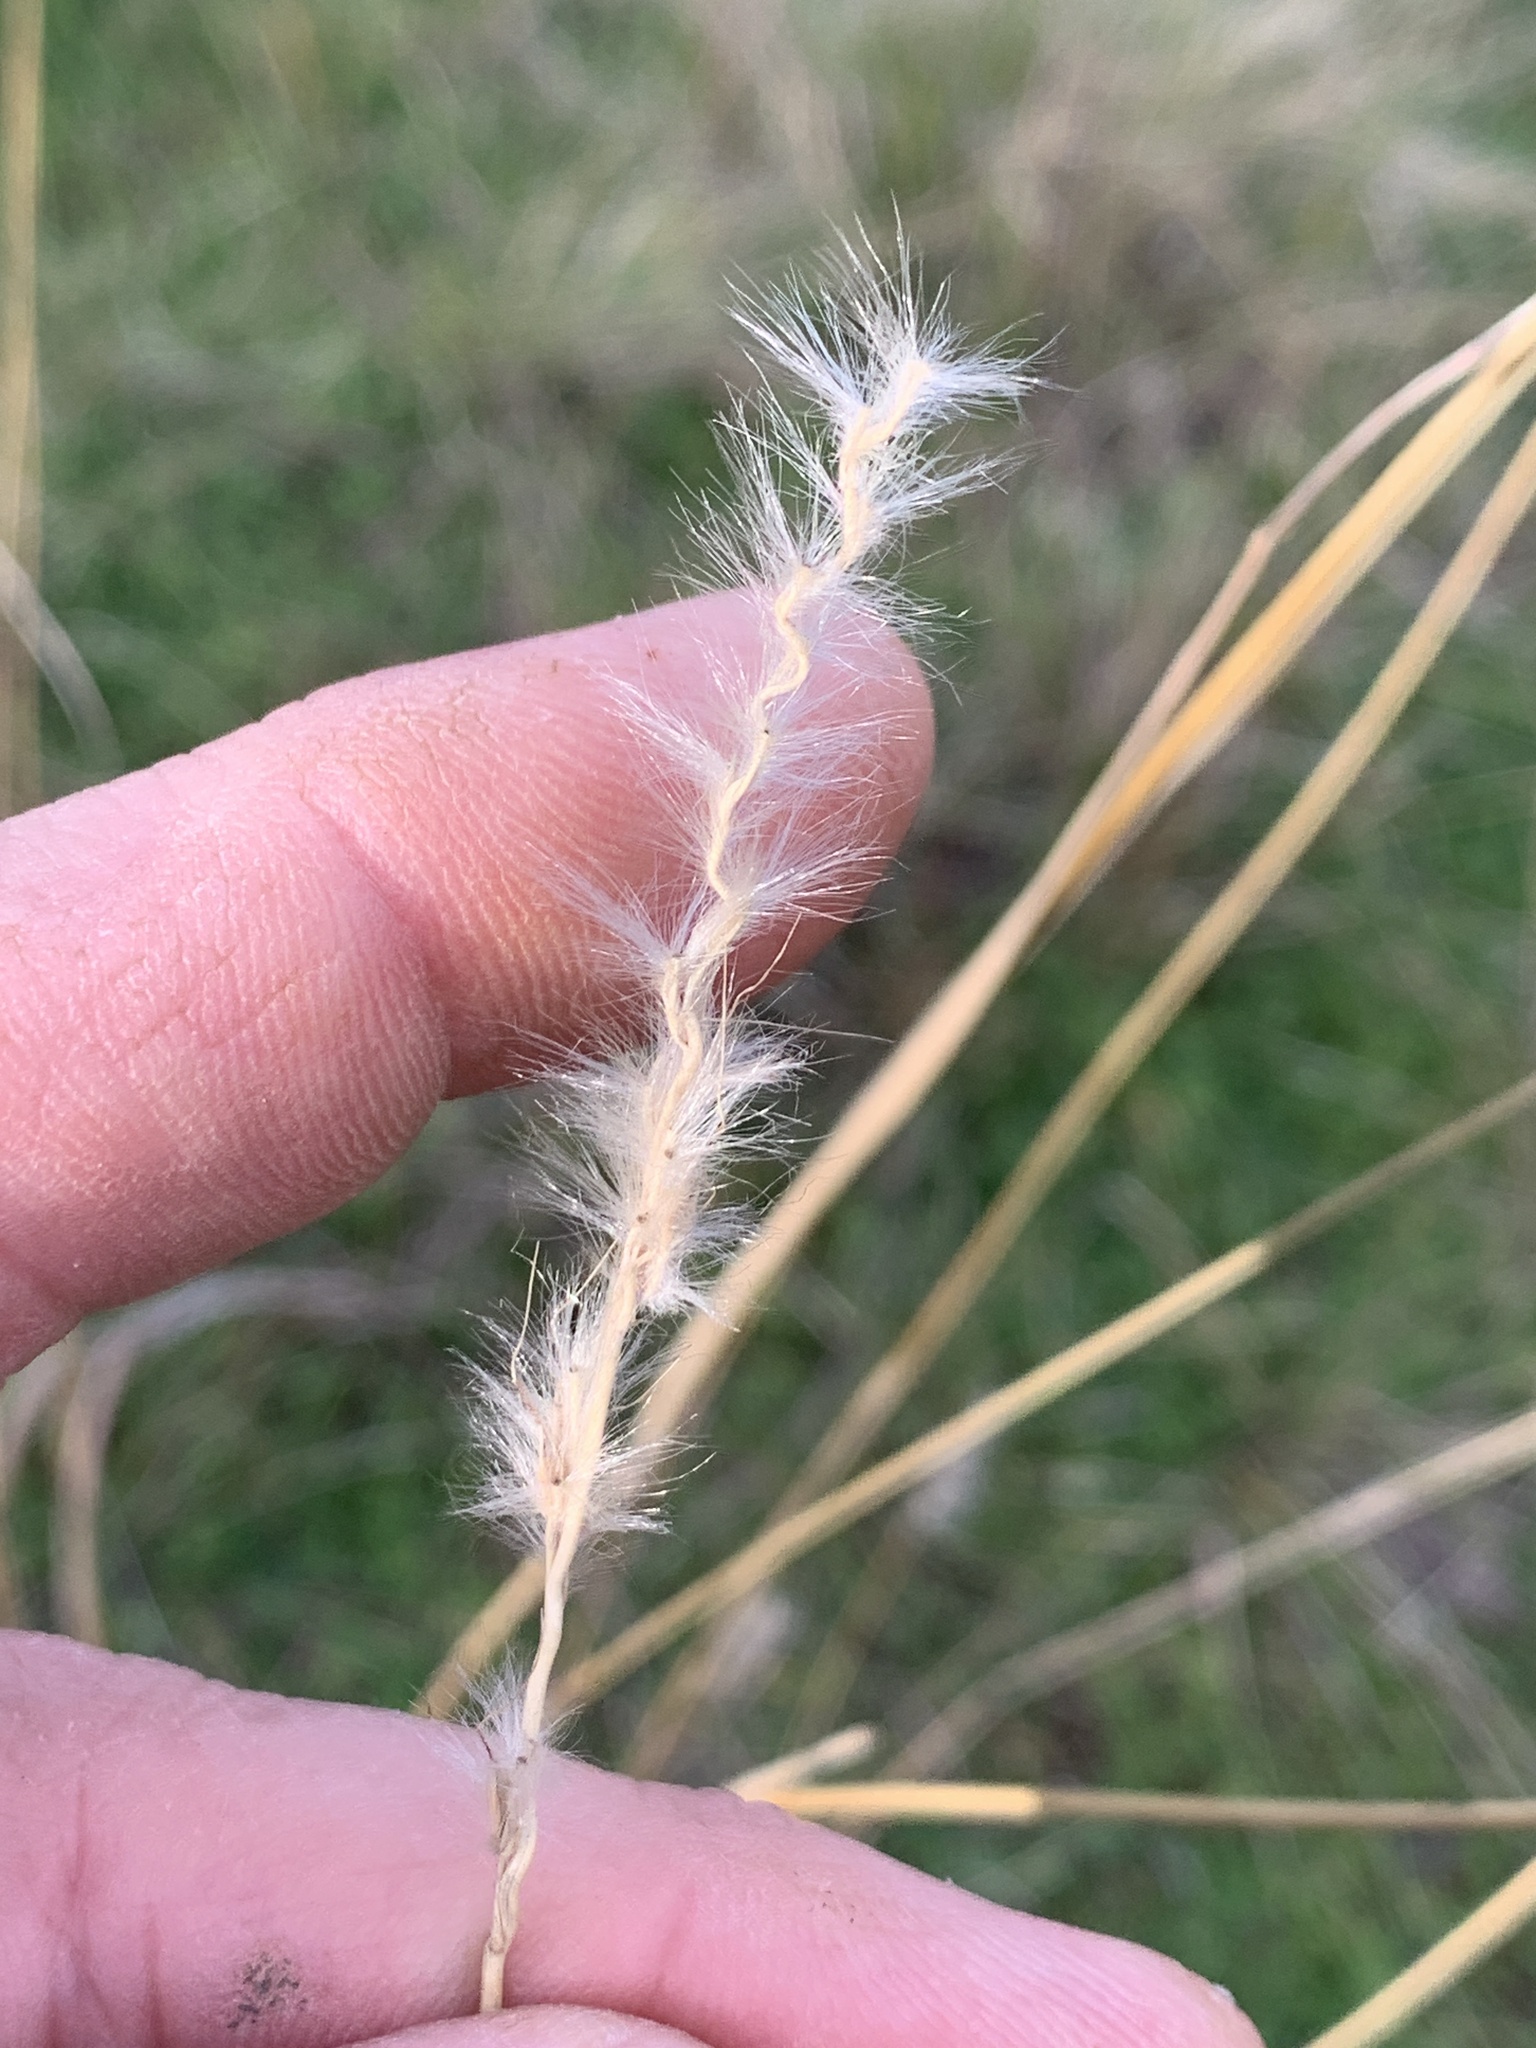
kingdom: Plantae
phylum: Tracheophyta
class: Liliopsida
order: Poales
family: Poaceae
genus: Bothriochloa
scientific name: Bothriochloa torreyana
